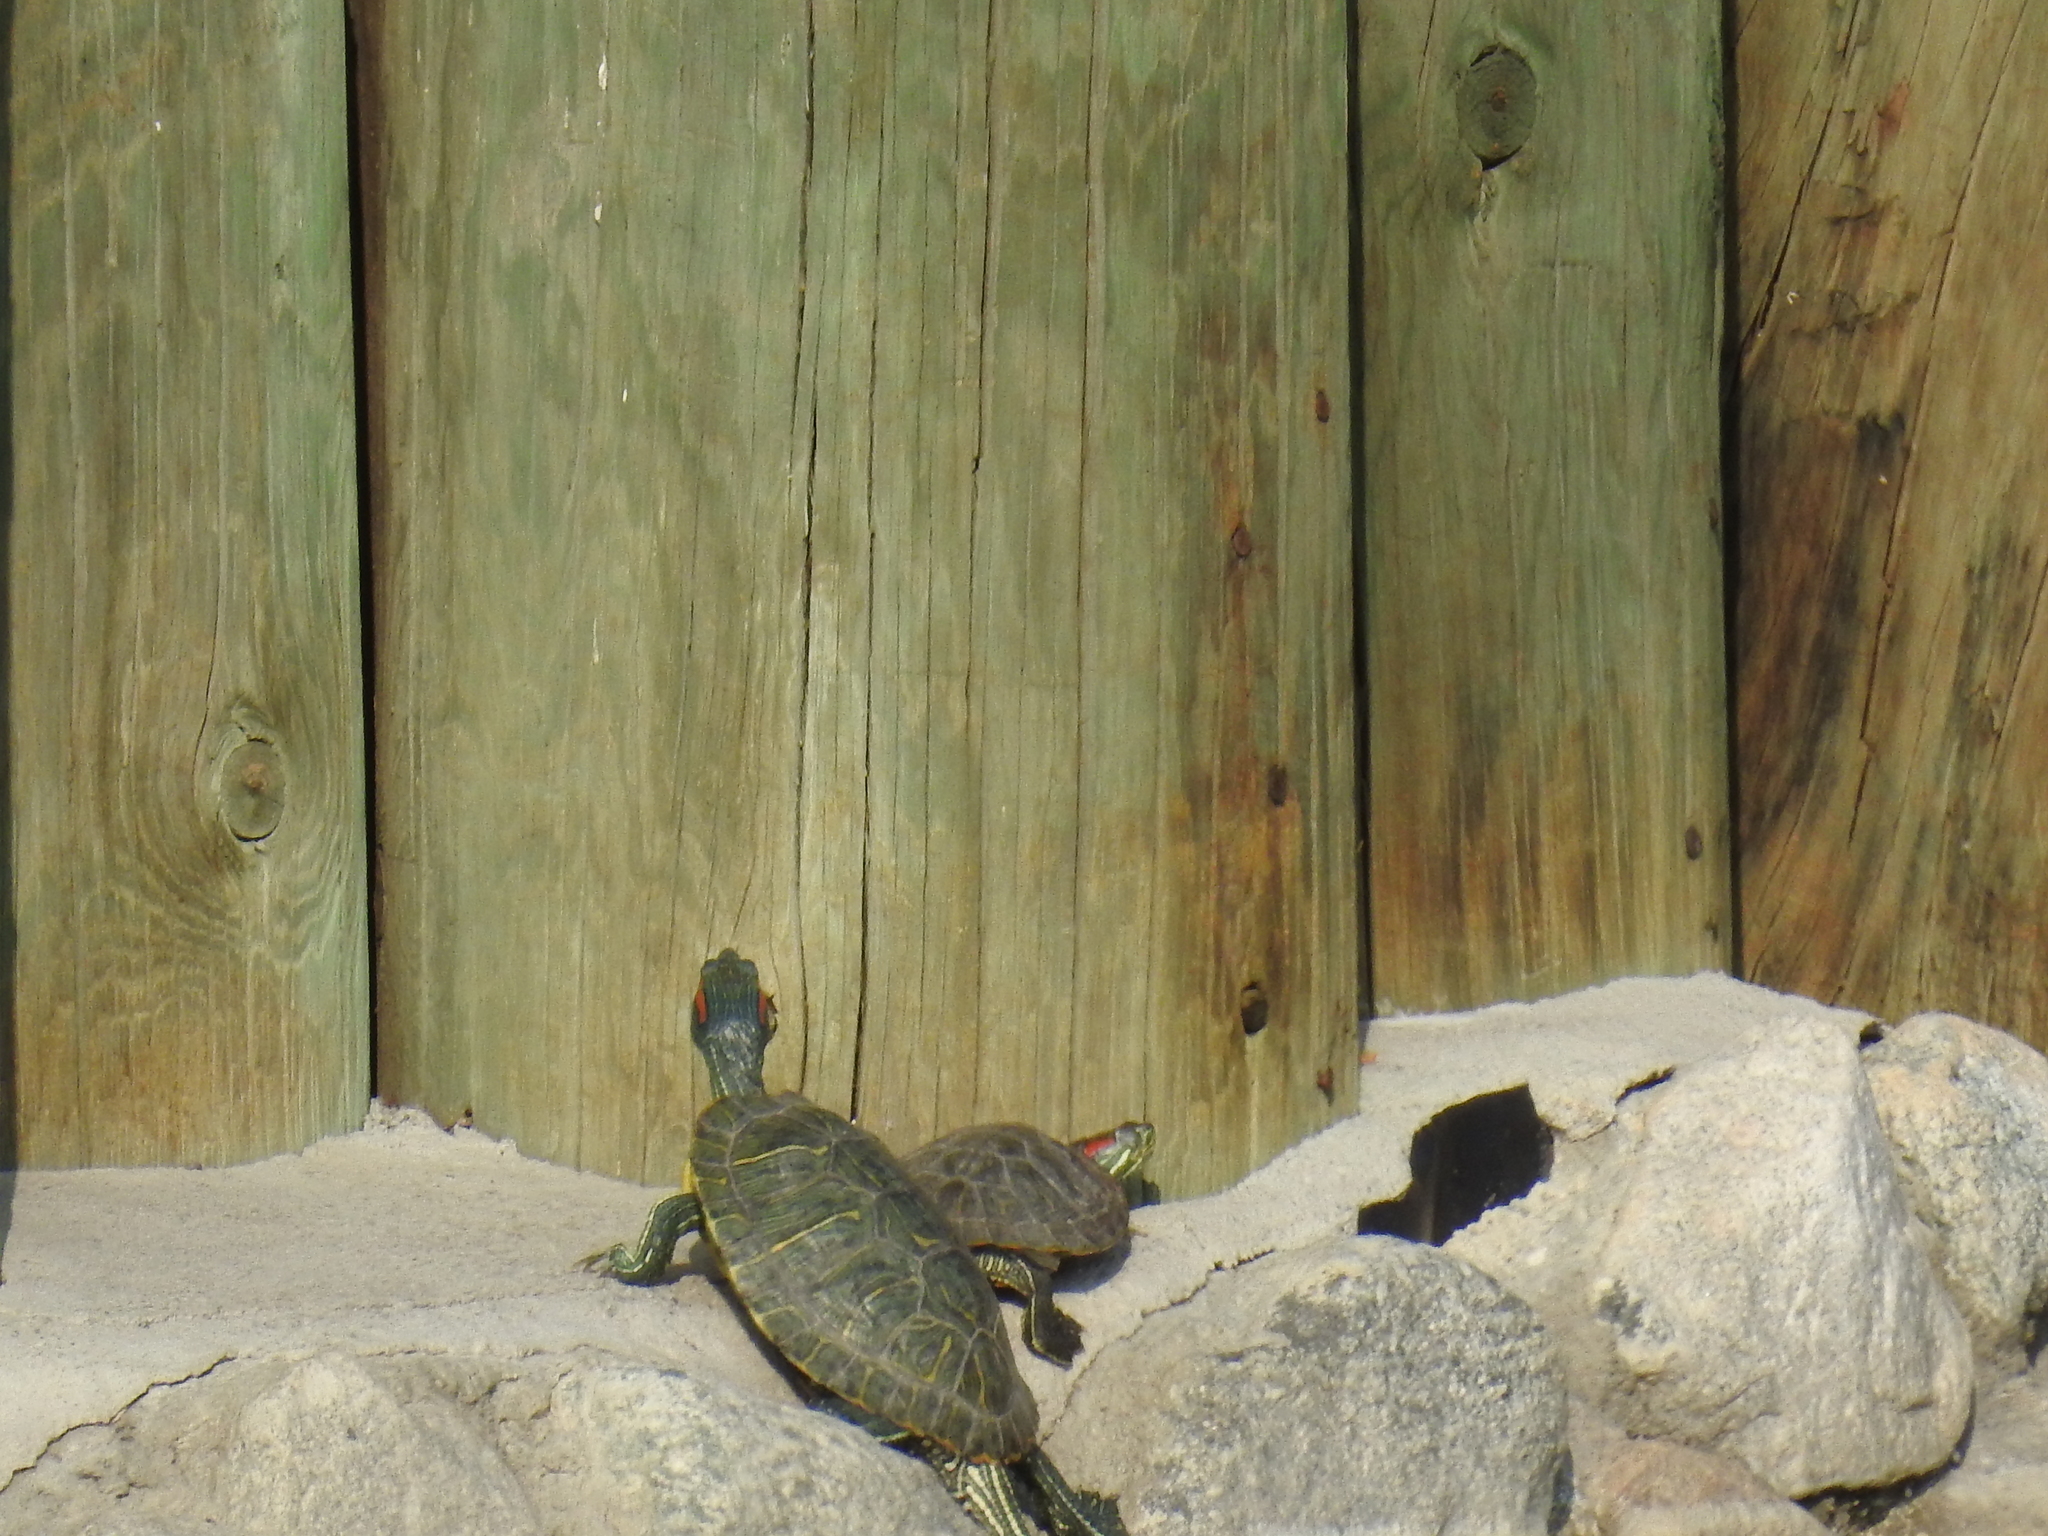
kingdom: Animalia
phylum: Chordata
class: Testudines
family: Emydidae
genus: Trachemys
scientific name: Trachemys scripta
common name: Slider
